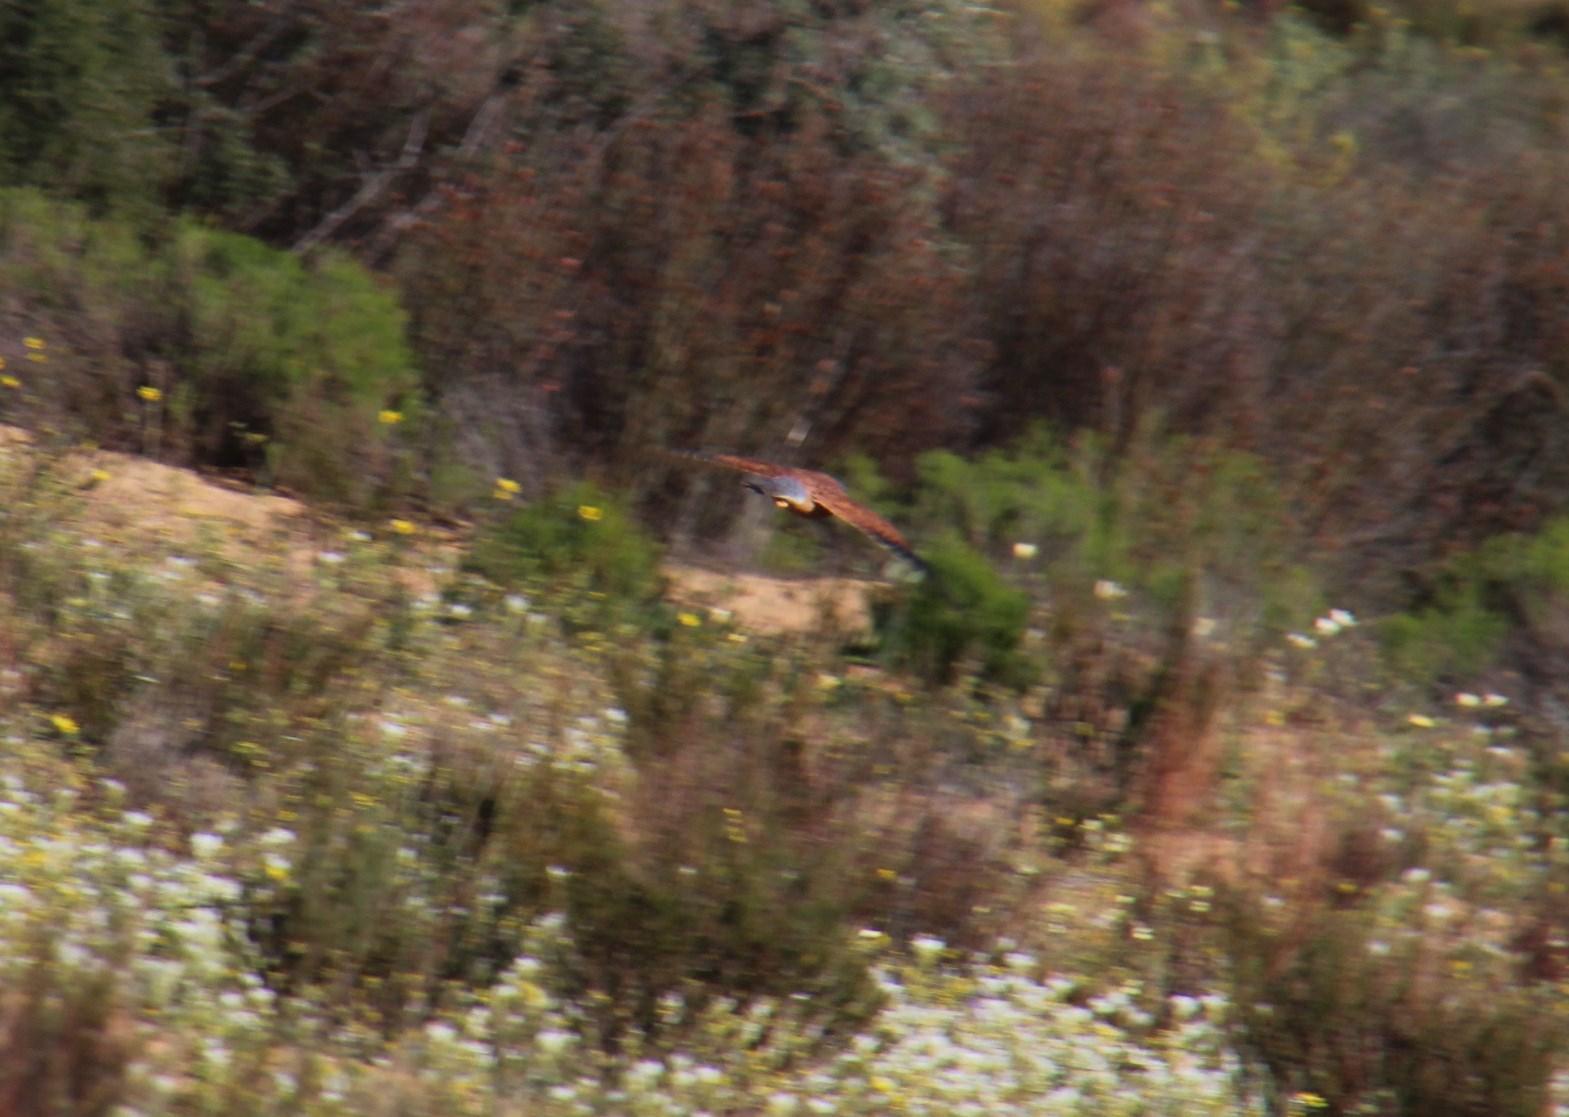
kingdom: Animalia
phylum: Chordata
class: Aves
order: Falconiformes
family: Falconidae
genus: Falco
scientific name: Falco rupicolus
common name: Rock kestrel
